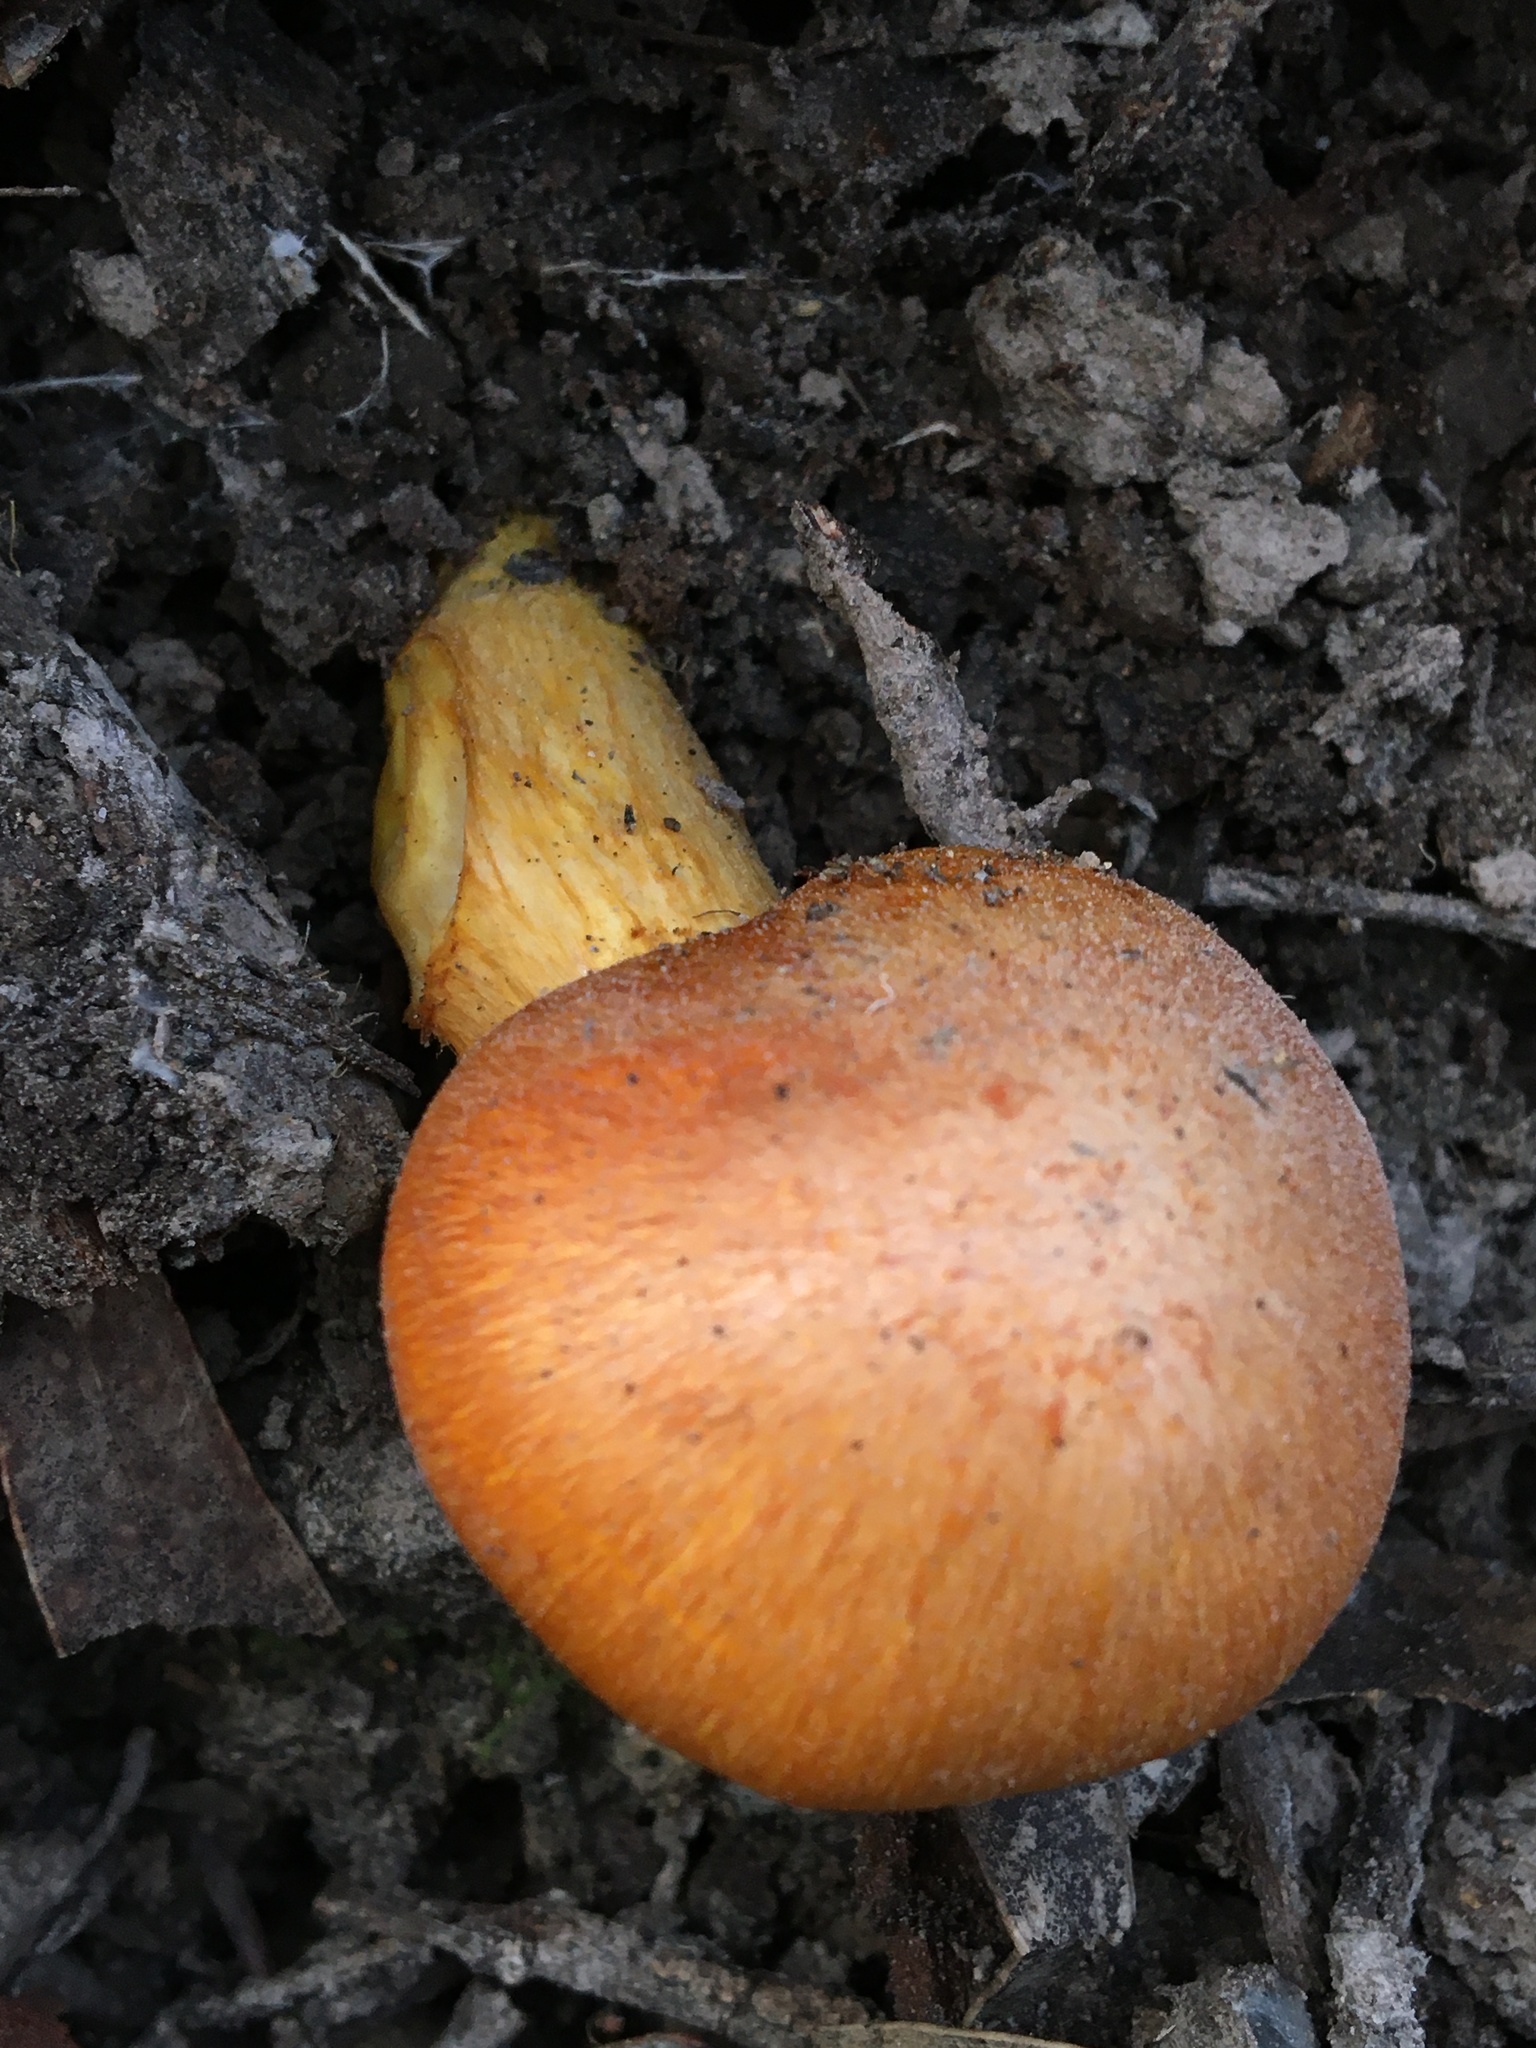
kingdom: Fungi
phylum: Basidiomycota
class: Agaricomycetes
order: Agaricales
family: Hymenogastraceae
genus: Gymnopilus
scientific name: Gymnopilus junonius
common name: Spectacular rustgill
